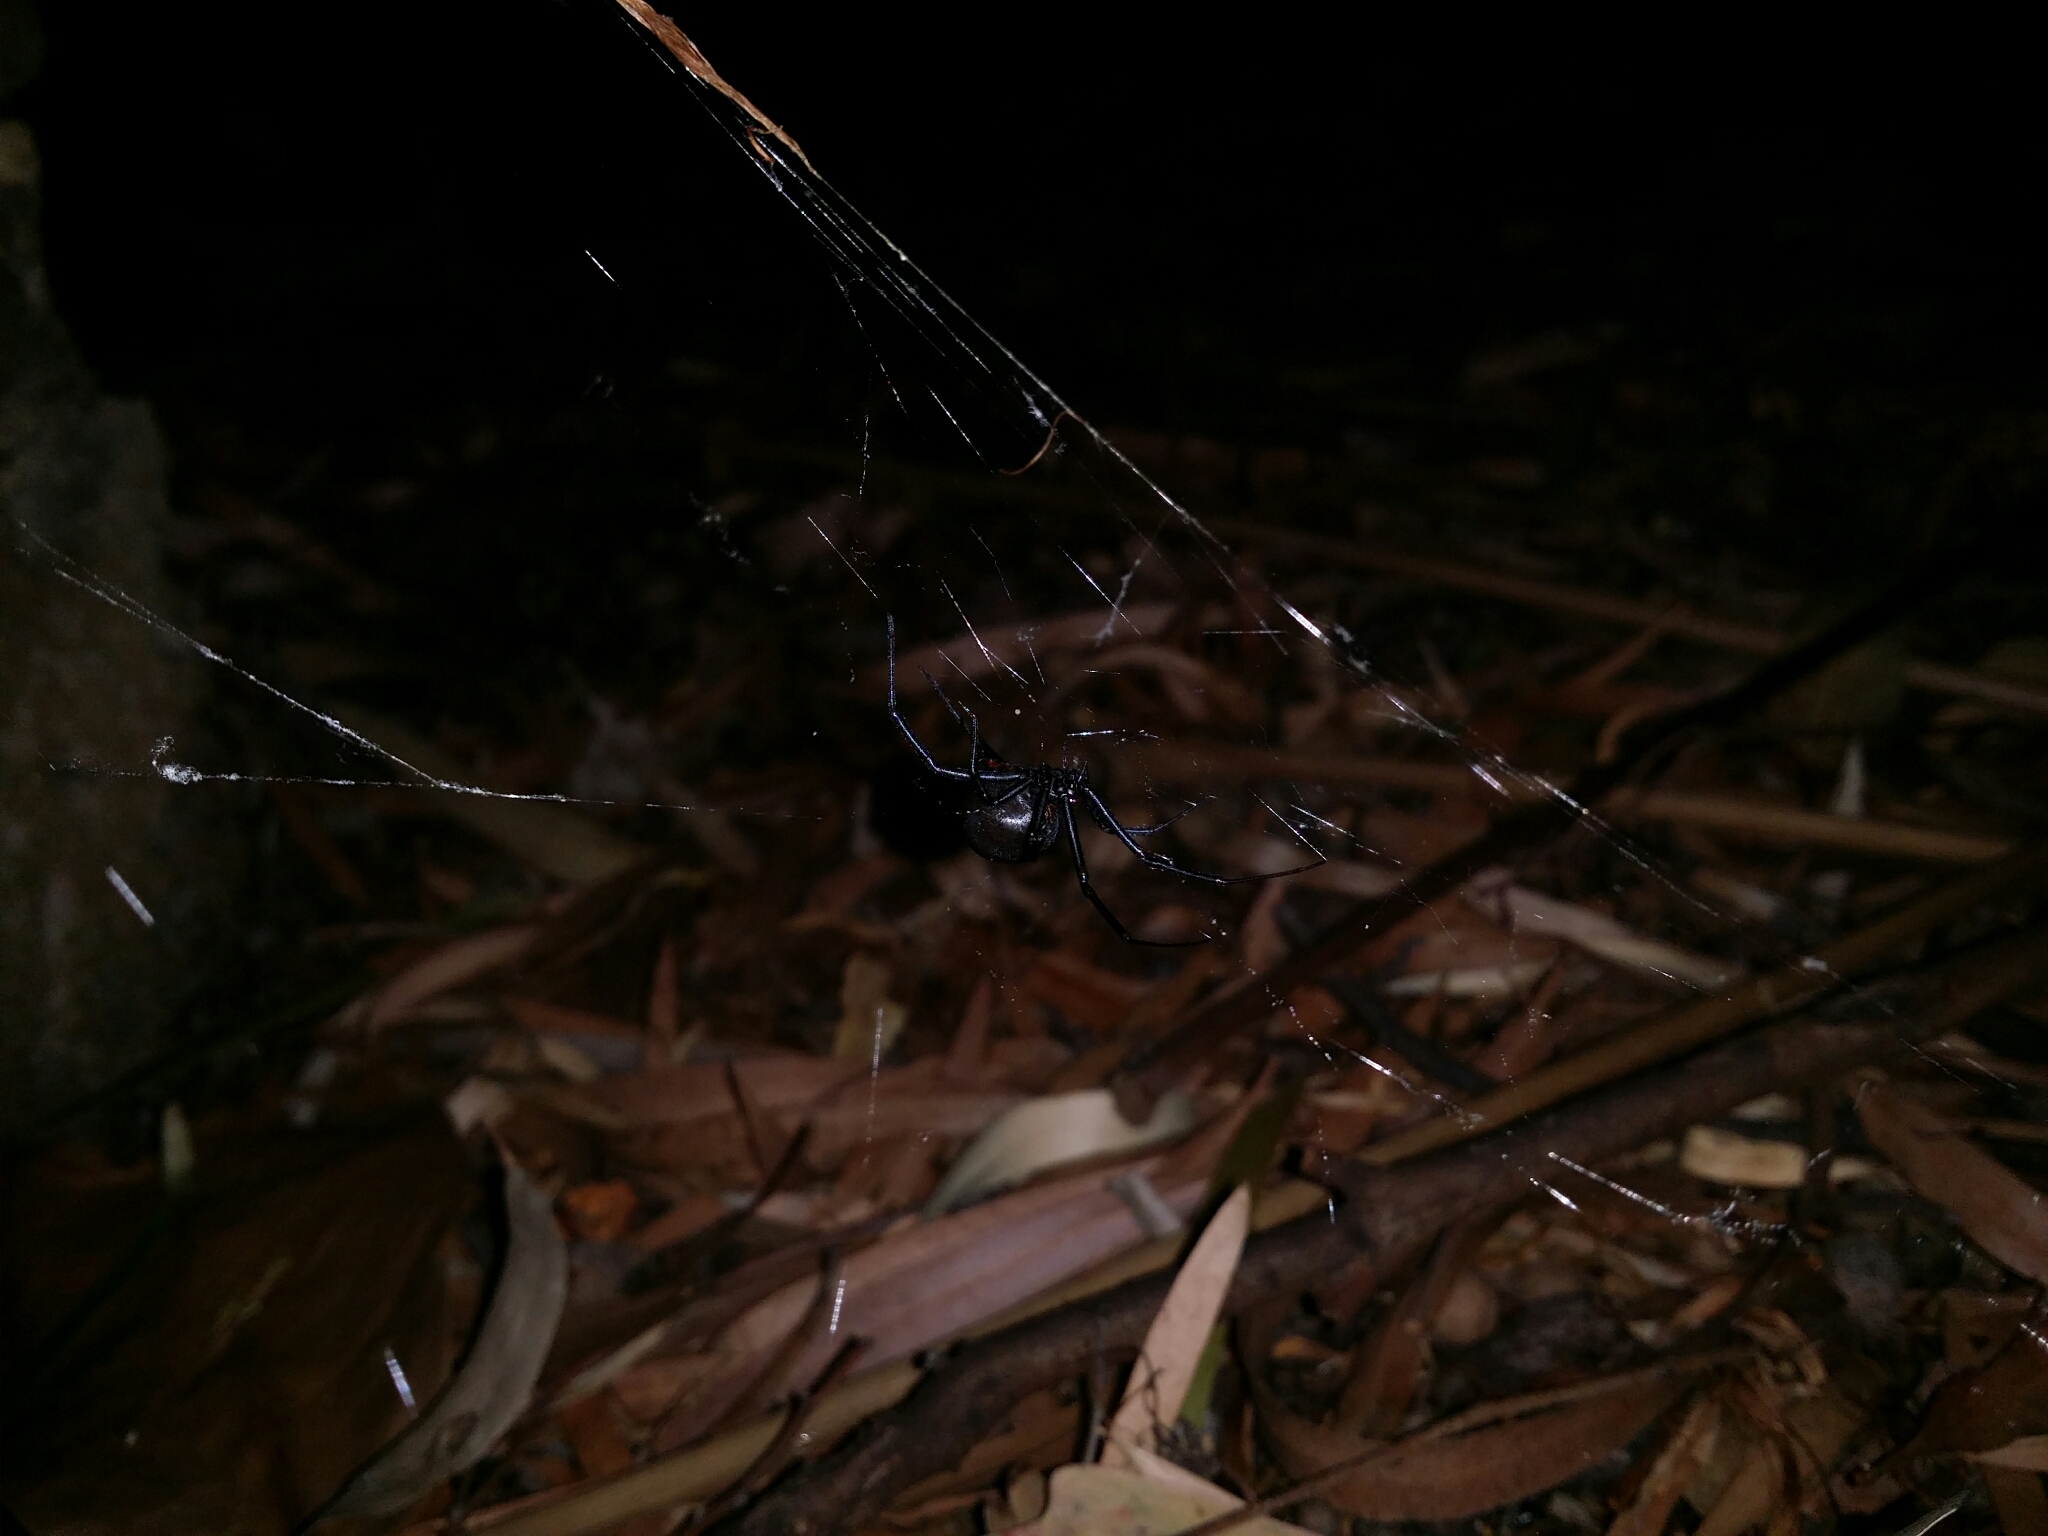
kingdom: Animalia
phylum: Arthropoda
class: Arachnida
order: Araneae
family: Theridiidae
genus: Latrodectus
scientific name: Latrodectus hasselti
